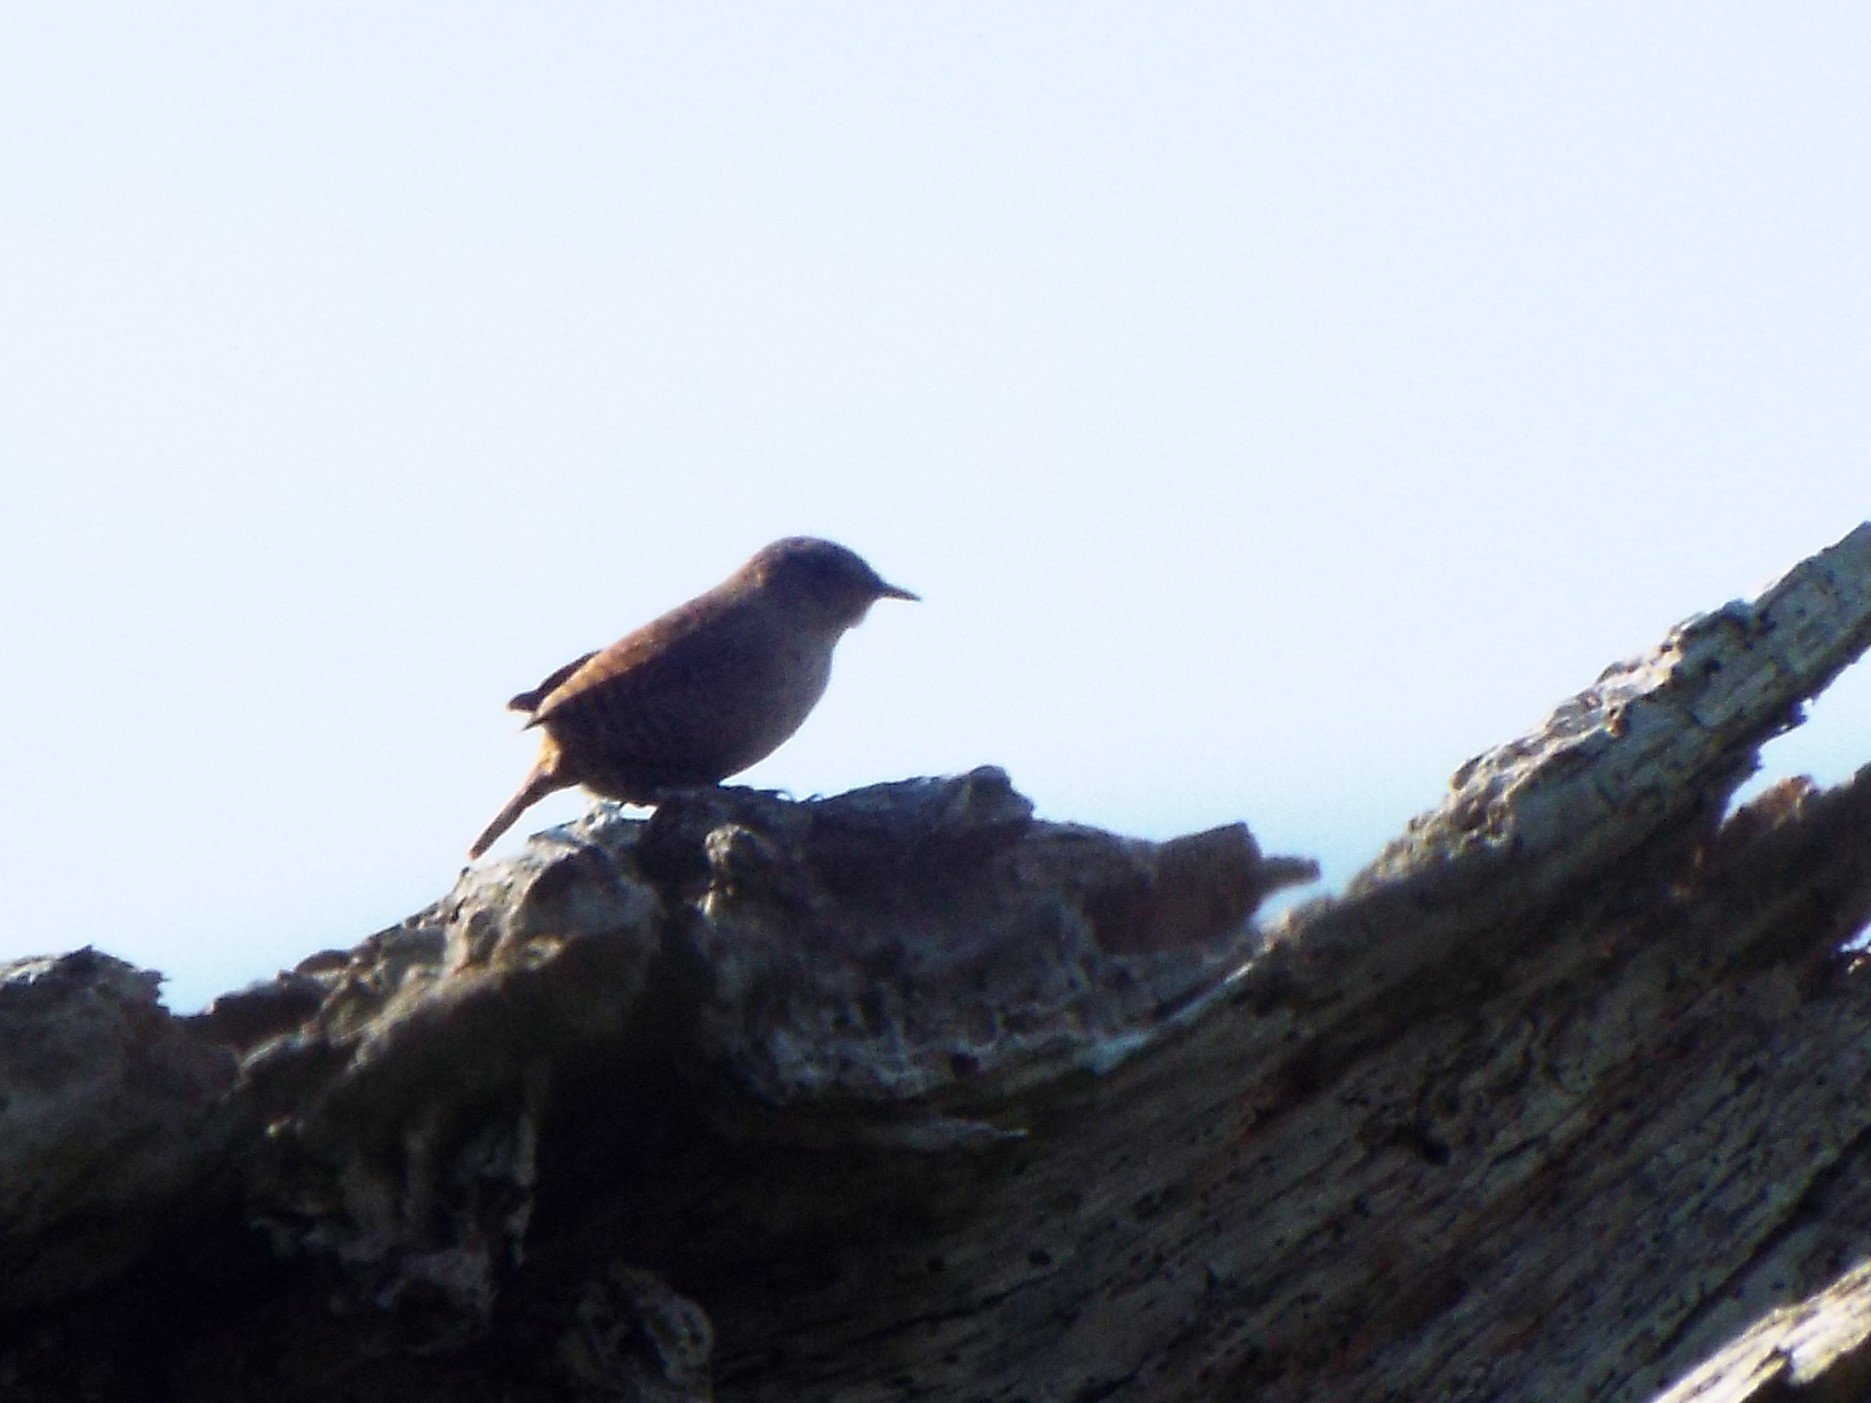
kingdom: Animalia
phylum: Chordata
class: Aves
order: Passeriformes
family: Troglodytidae
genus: Troglodytes
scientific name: Troglodytes hiemalis
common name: Winter wren
